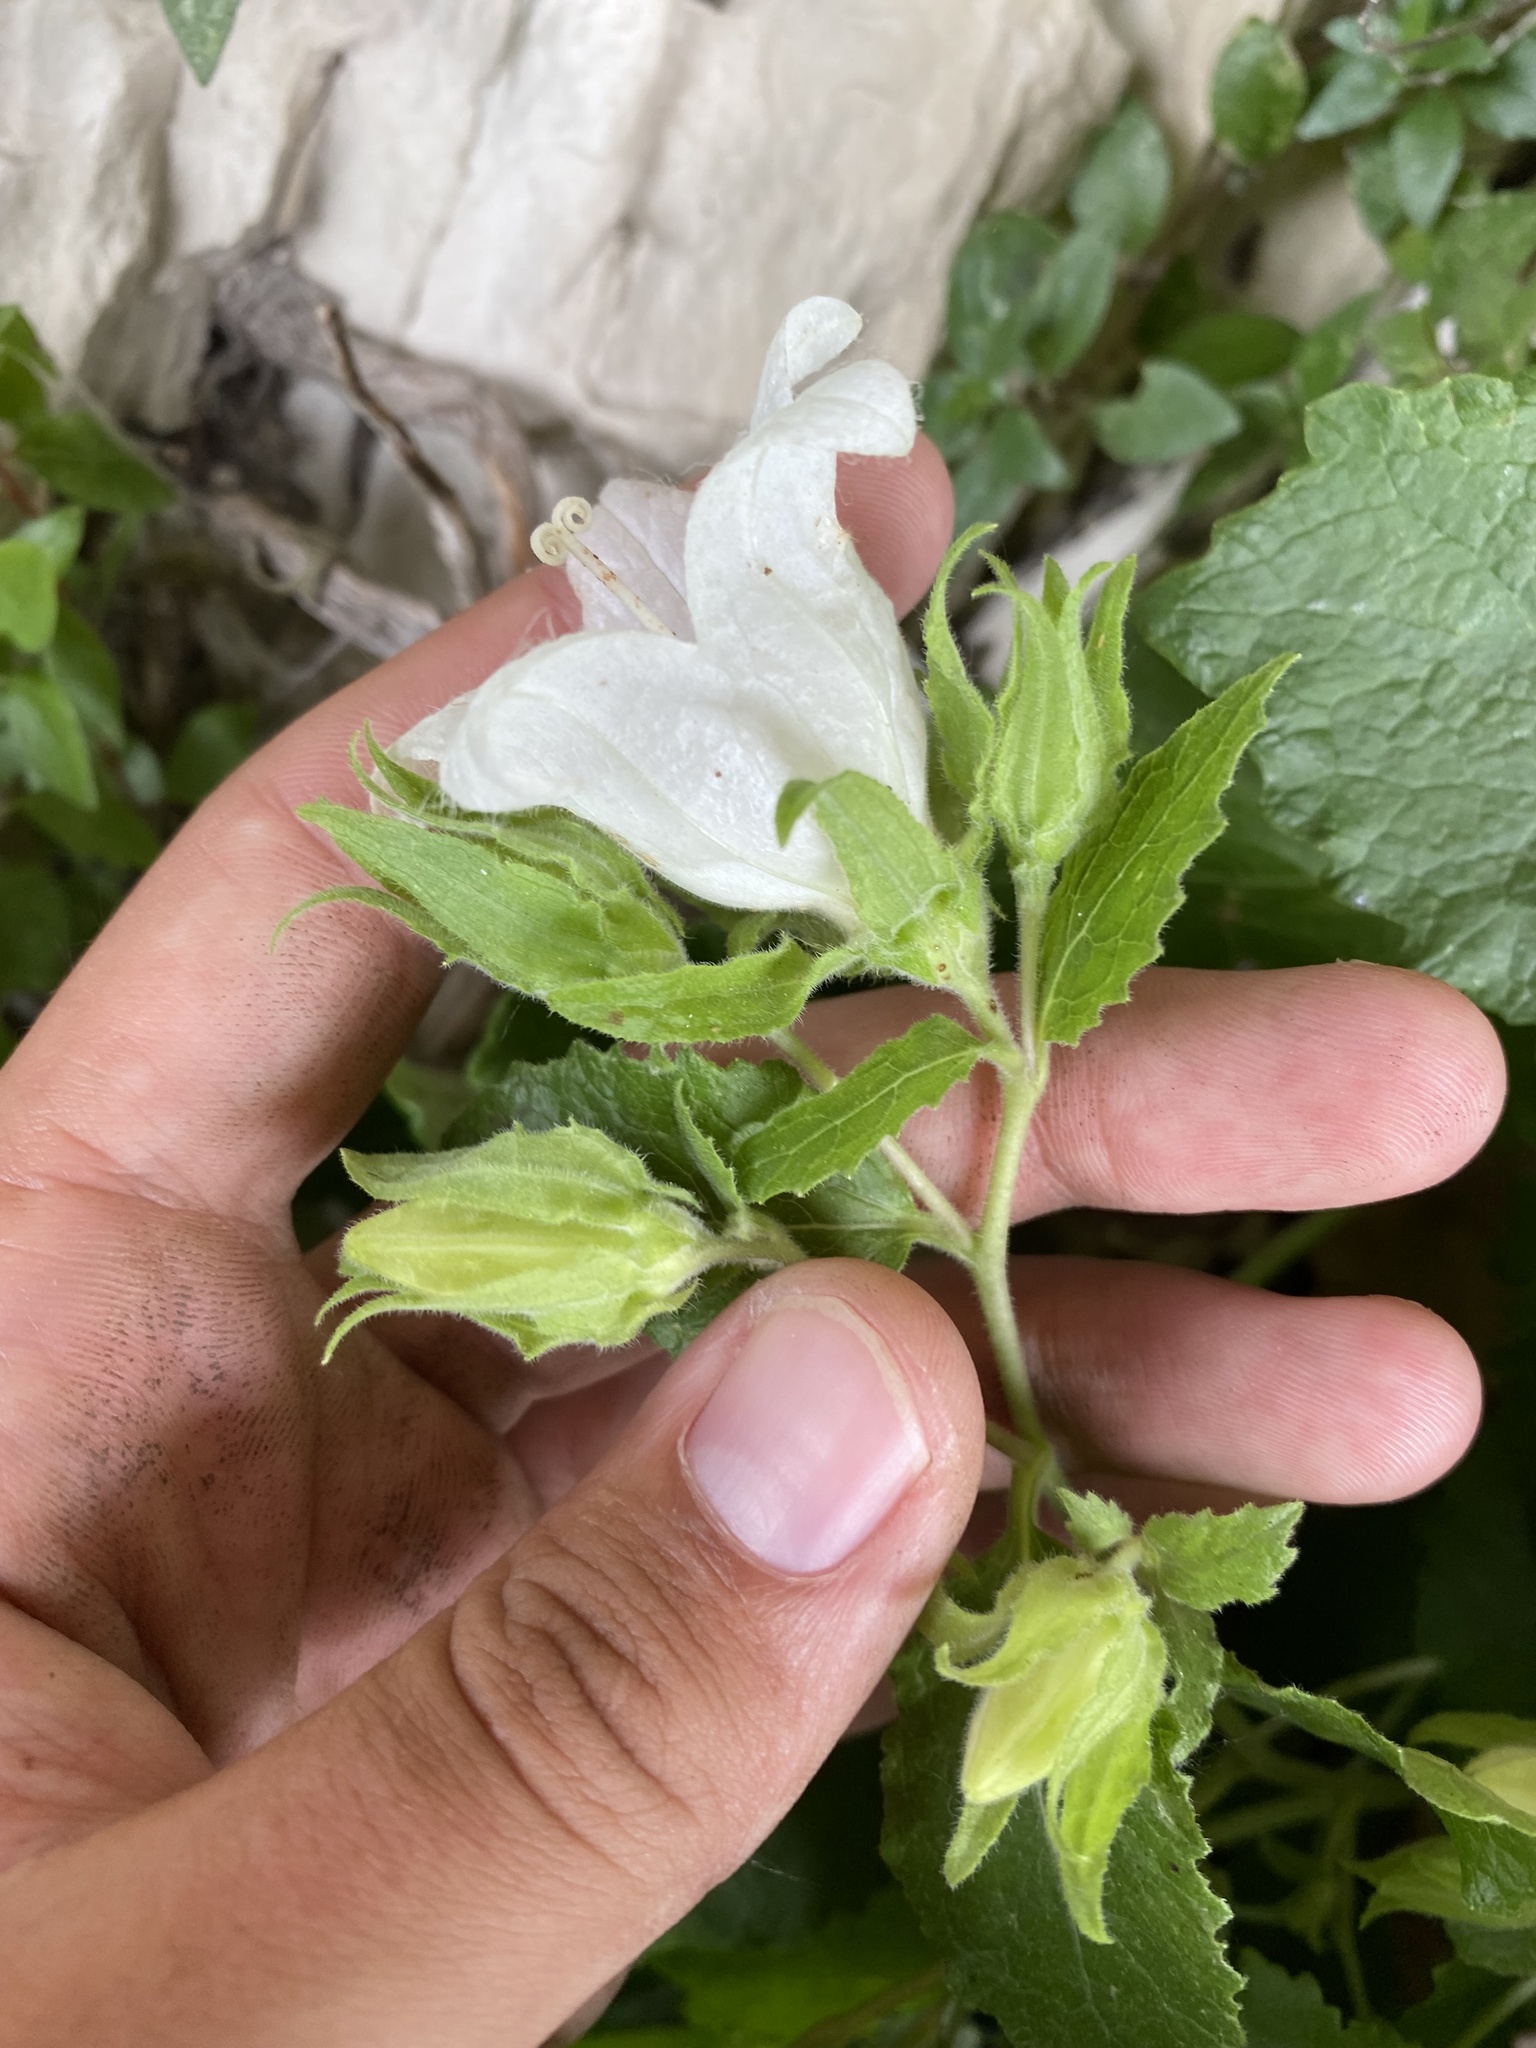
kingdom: Plantae
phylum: Tracheophyta
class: Magnoliopsida
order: Asterales
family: Campanulaceae
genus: Campanula
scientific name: Campanula pendula
